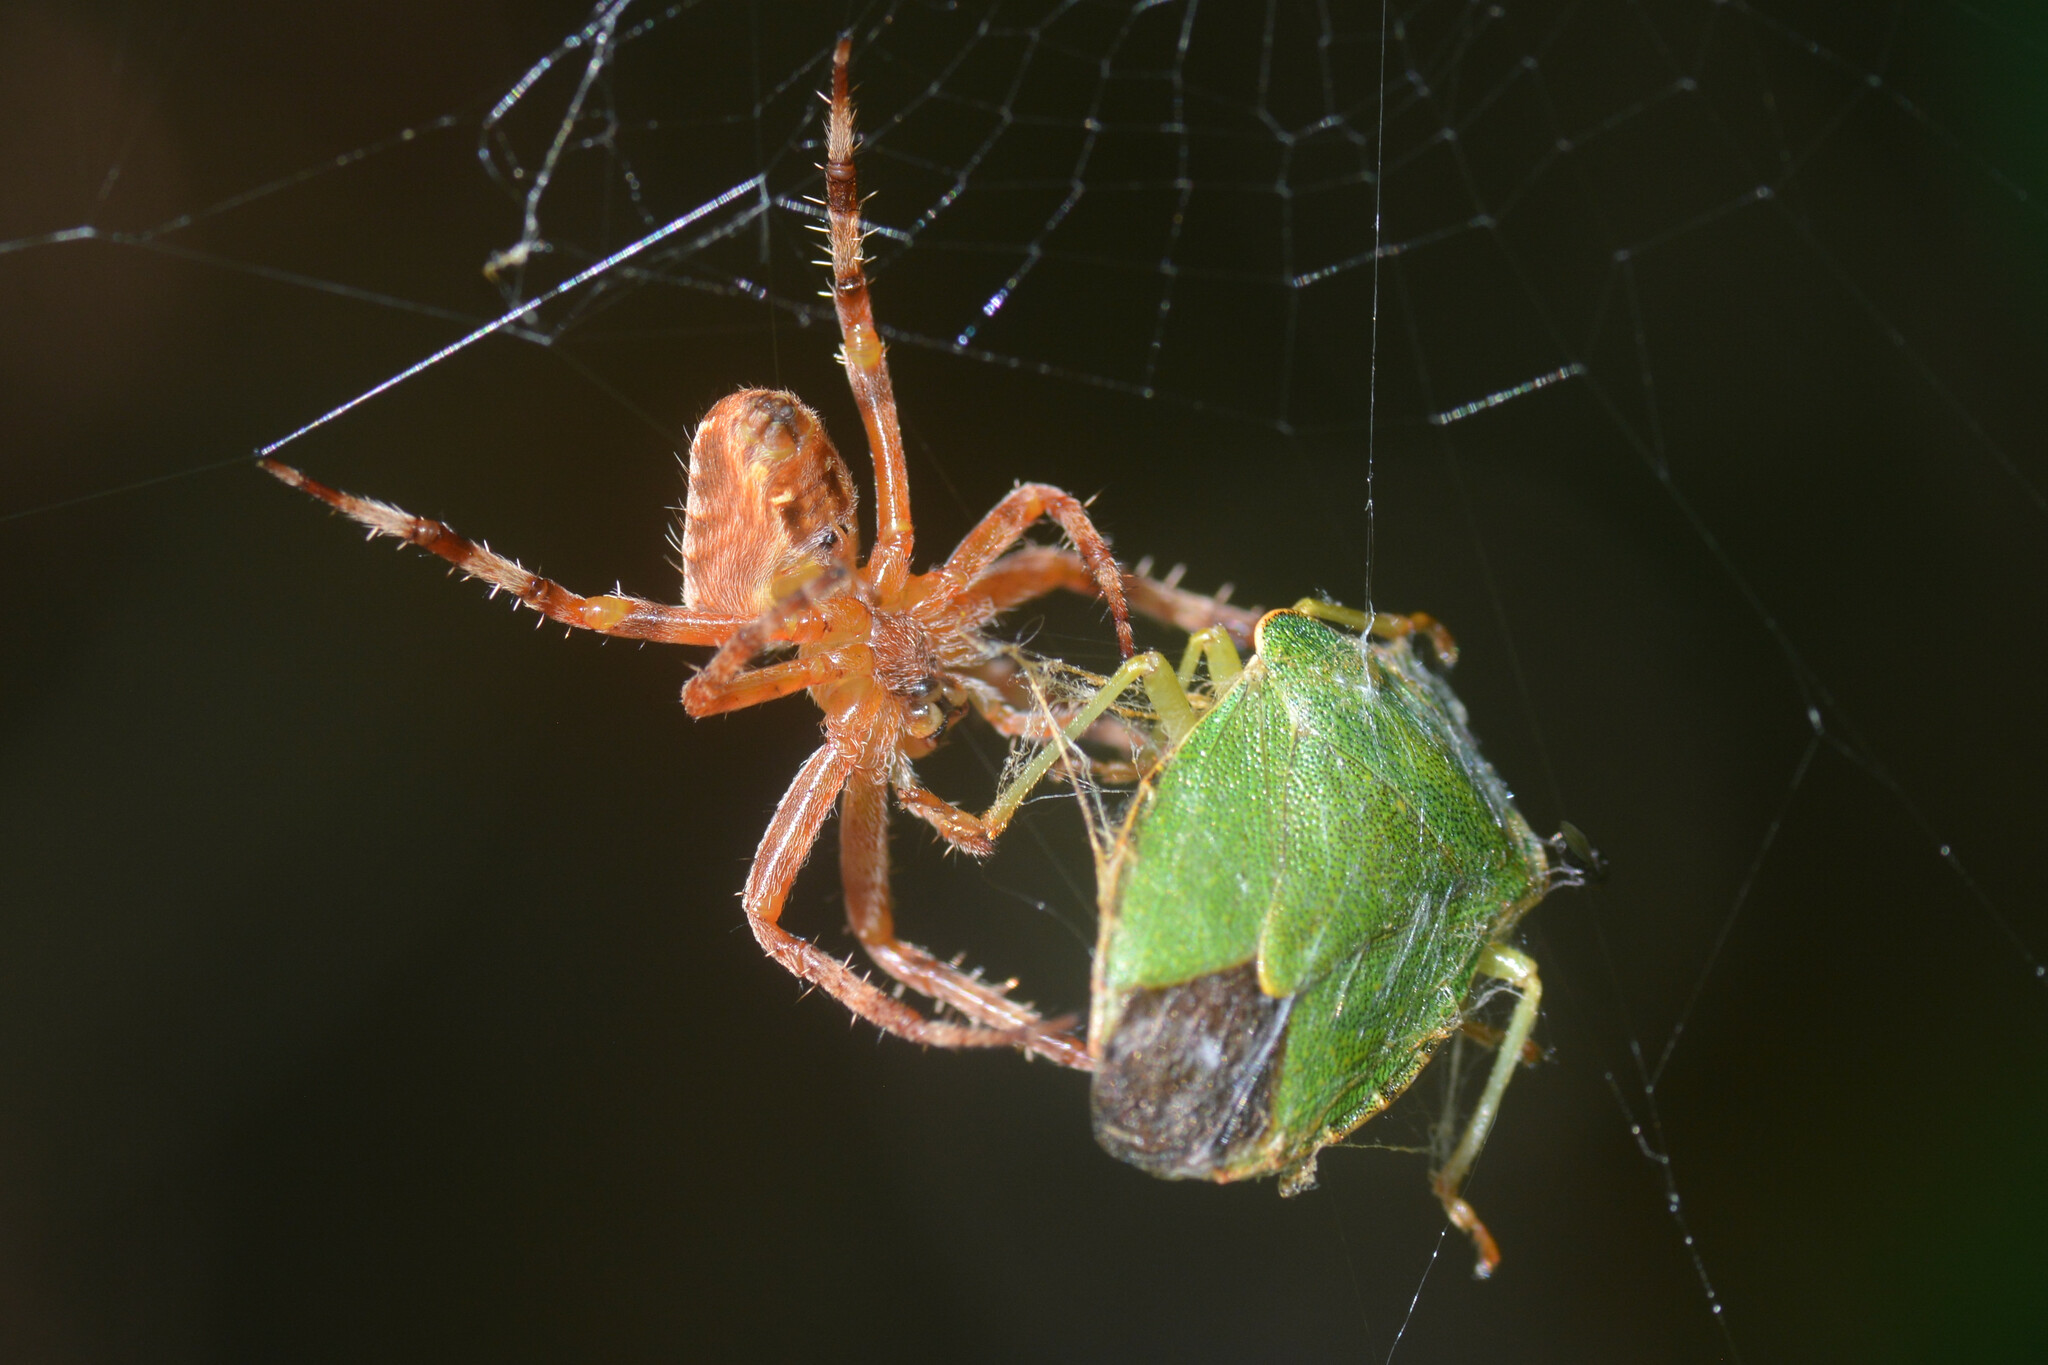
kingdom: Animalia
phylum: Arthropoda
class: Arachnida
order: Araneae
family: Araneidae
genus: Araneus
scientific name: Araneus diadematus
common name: Cross orbweaver
